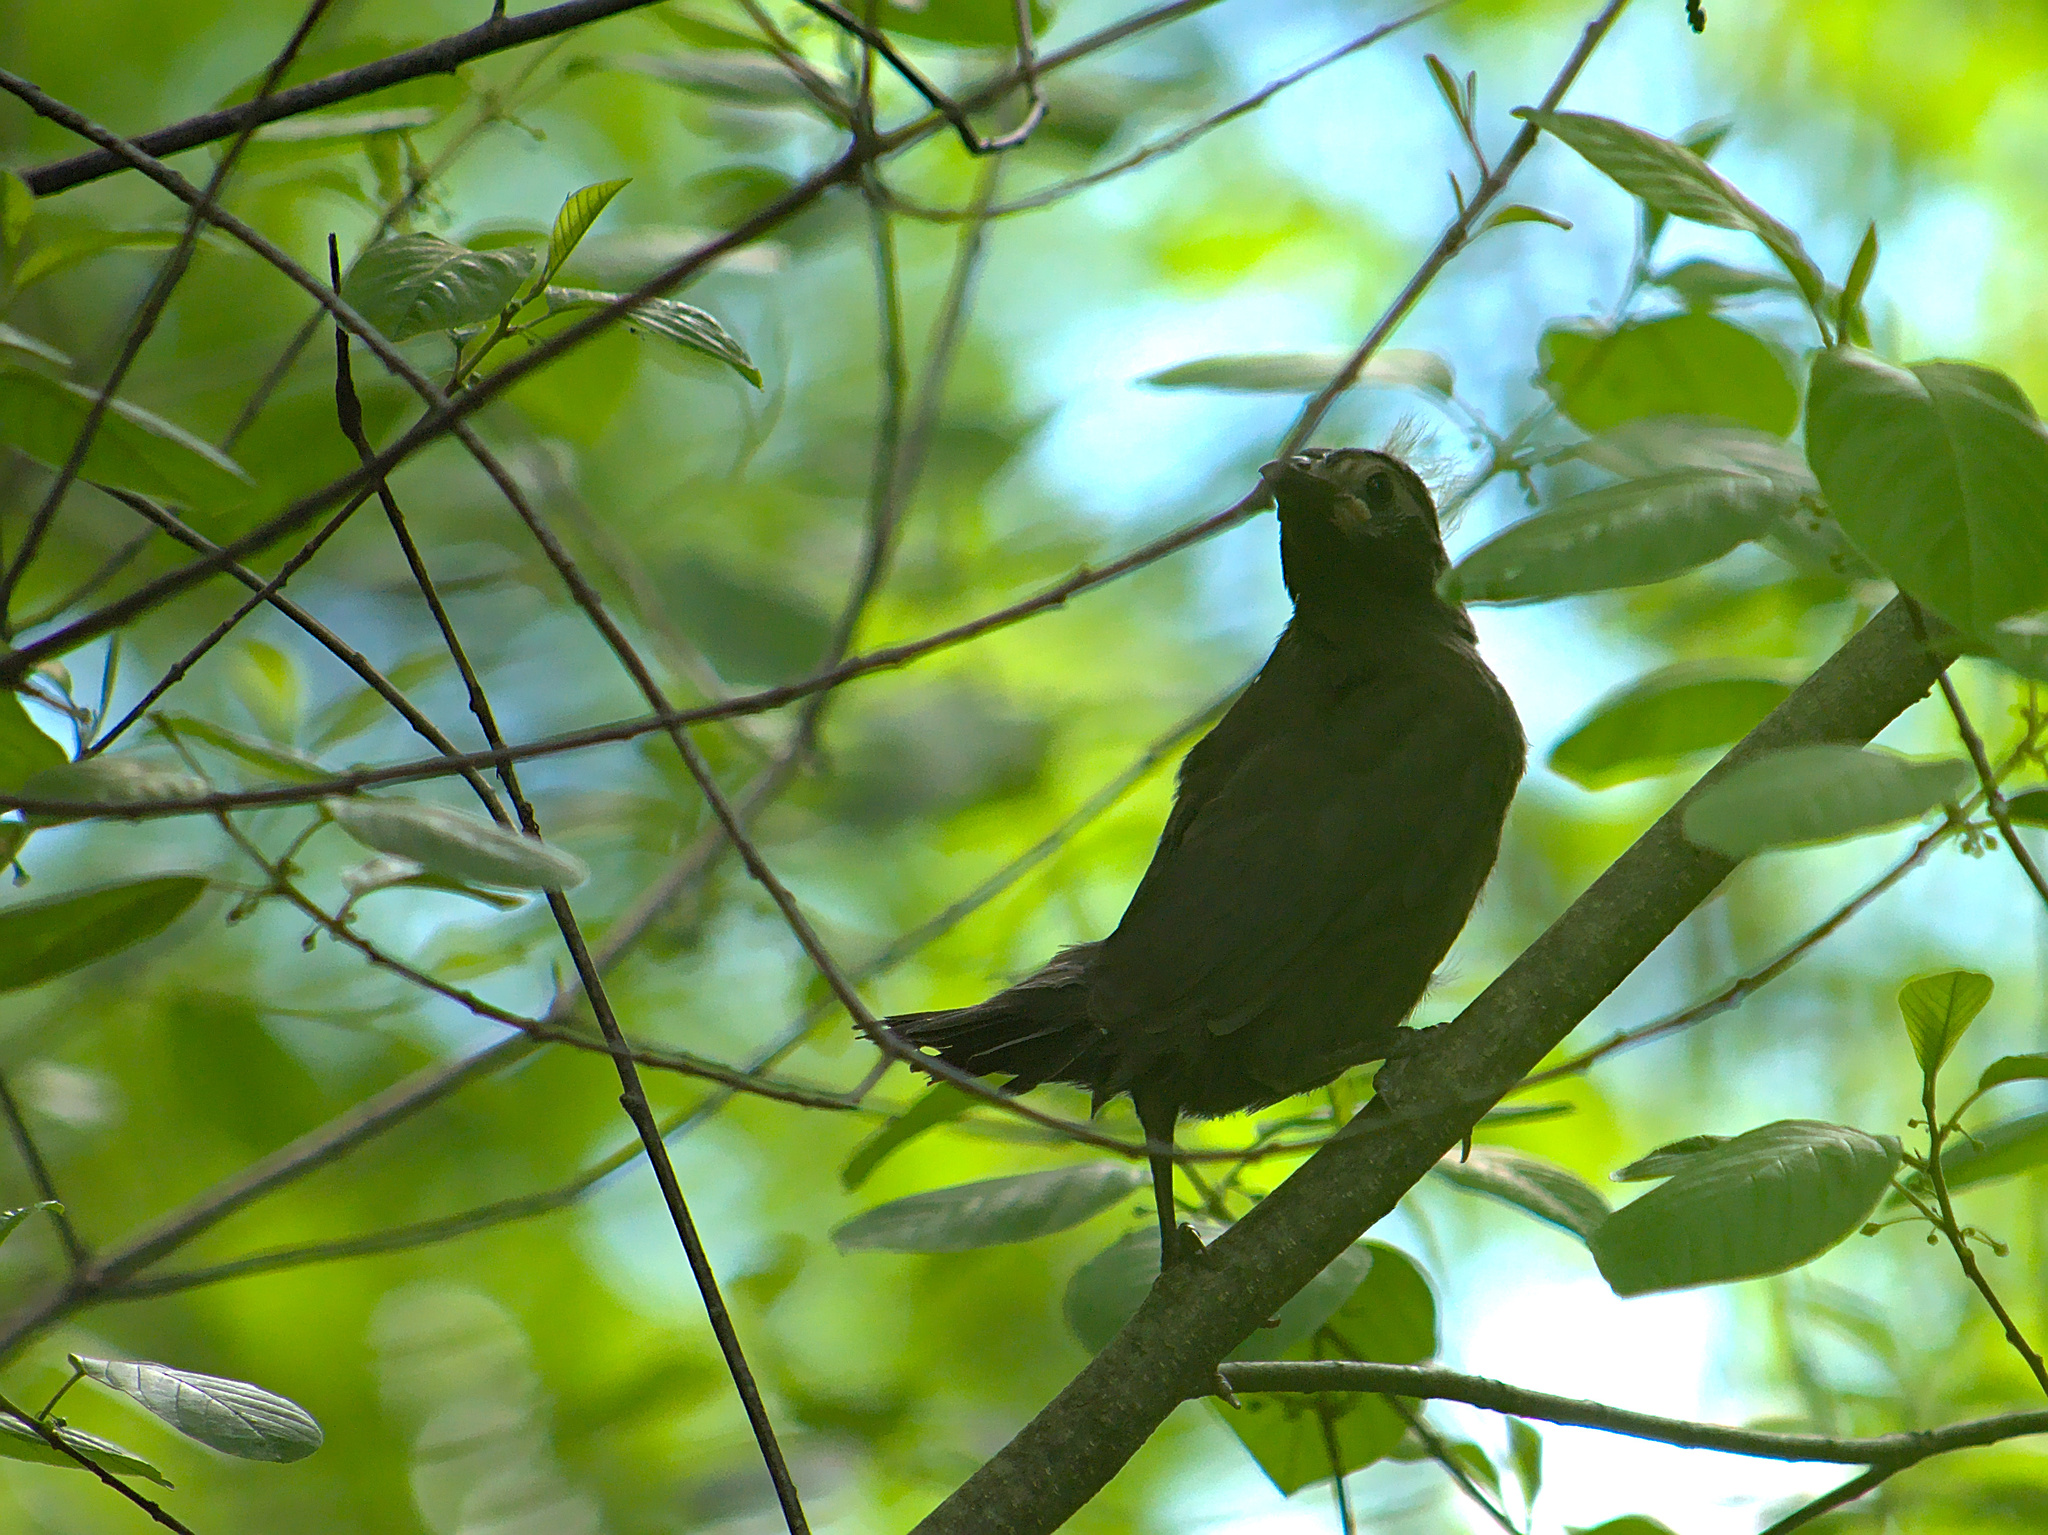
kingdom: Animalia
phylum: Chordata
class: Aves
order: Passeriformes
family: Icteridae
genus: Quiscalus
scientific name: Quiscalus quiscula
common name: Common grackle
